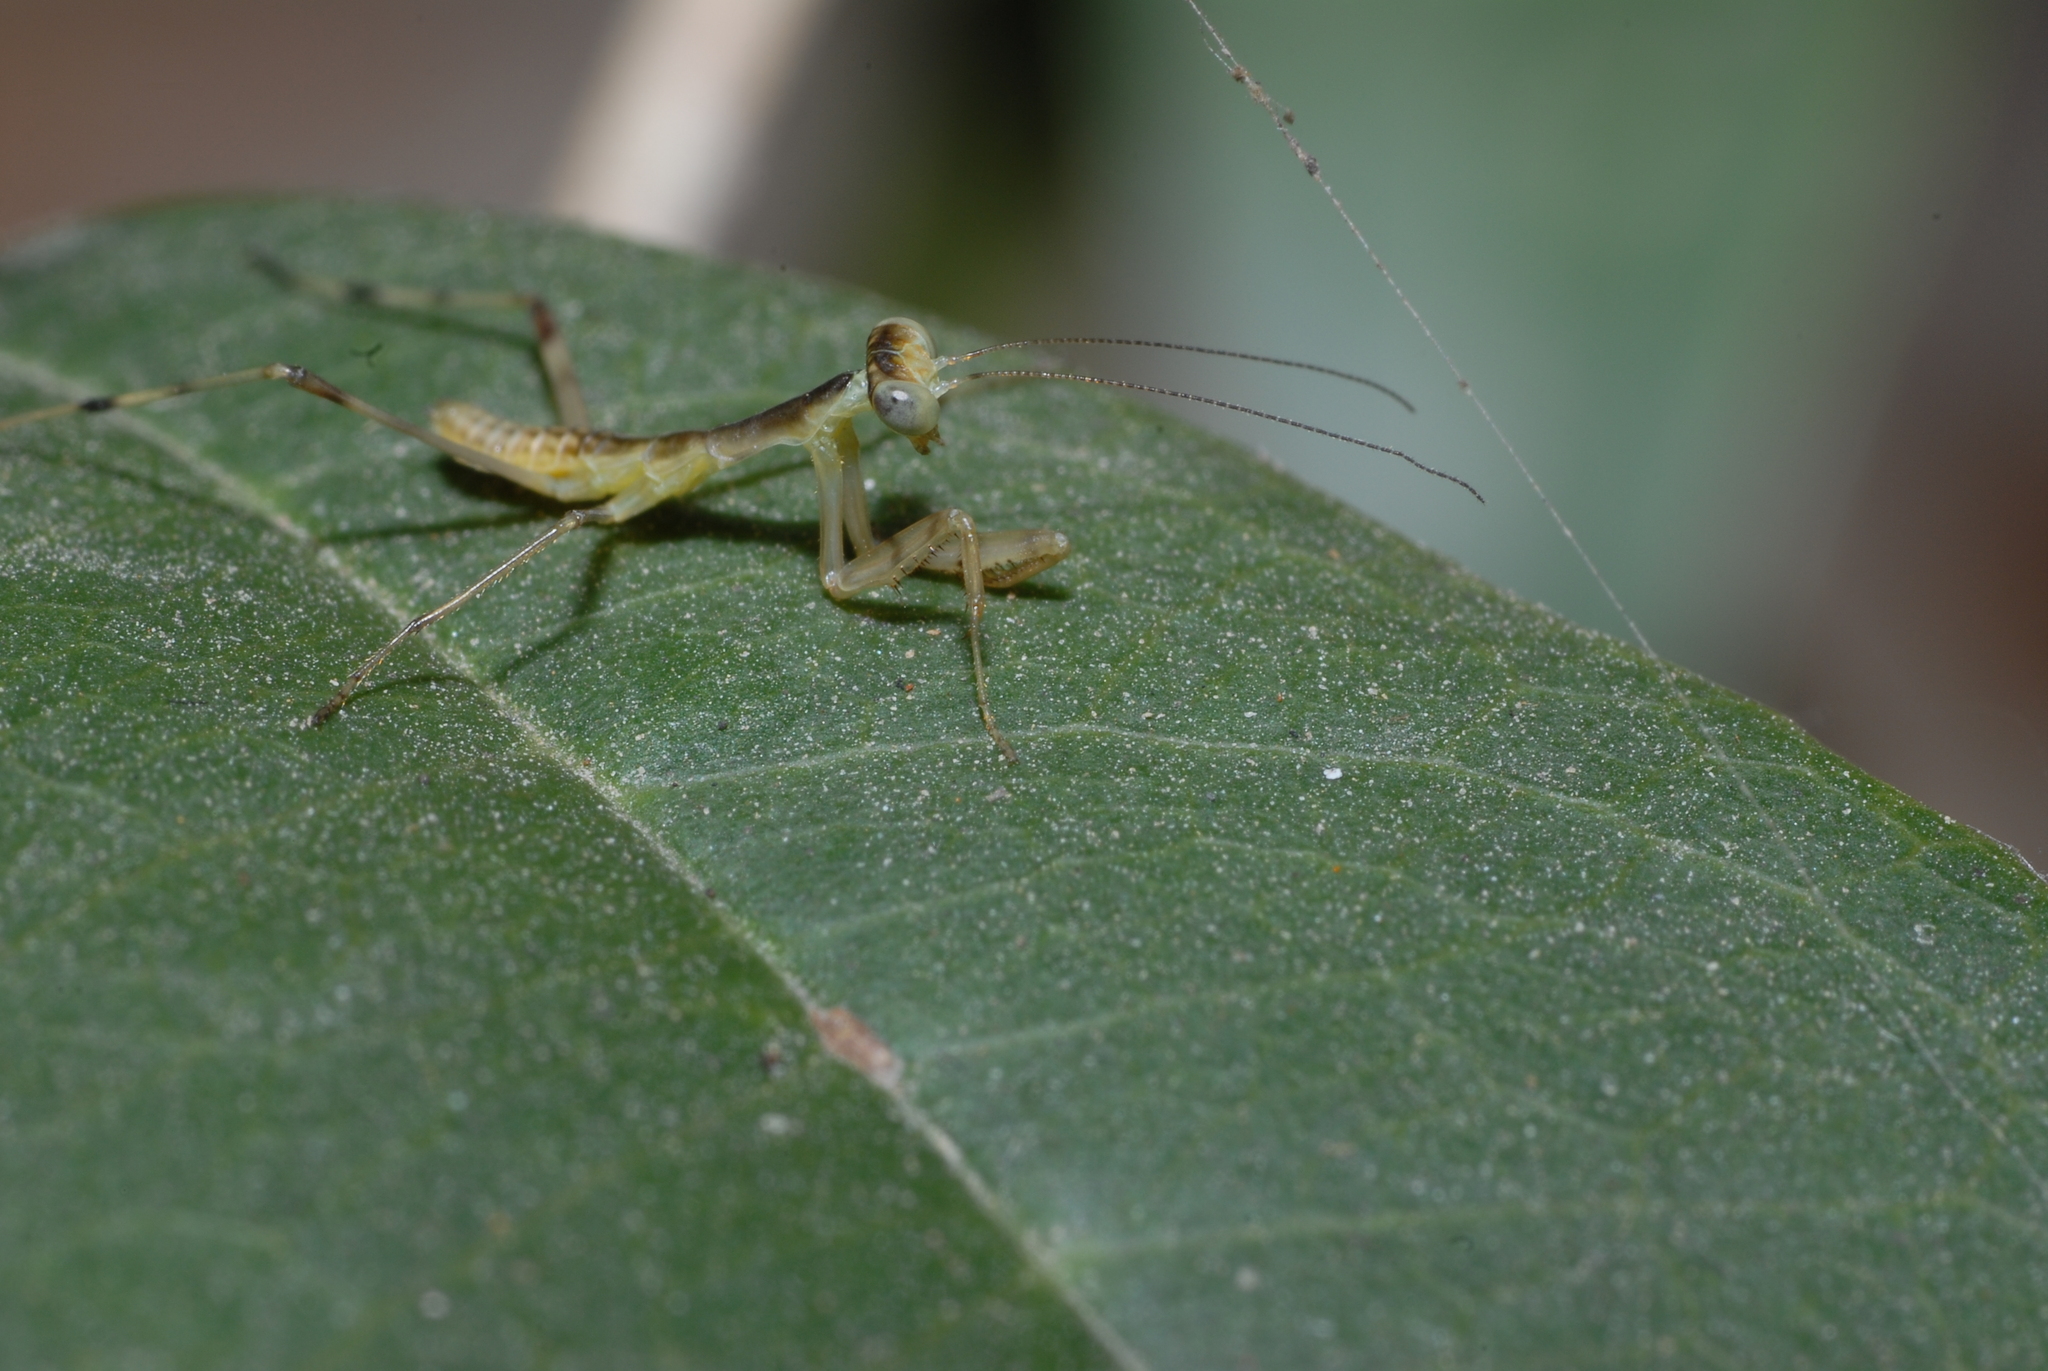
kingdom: Animalia
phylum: Arthropoda
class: Insecta
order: Mantodea
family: Mantidae
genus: Hierodula
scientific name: Hierodula patellifera
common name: Asian mantis
